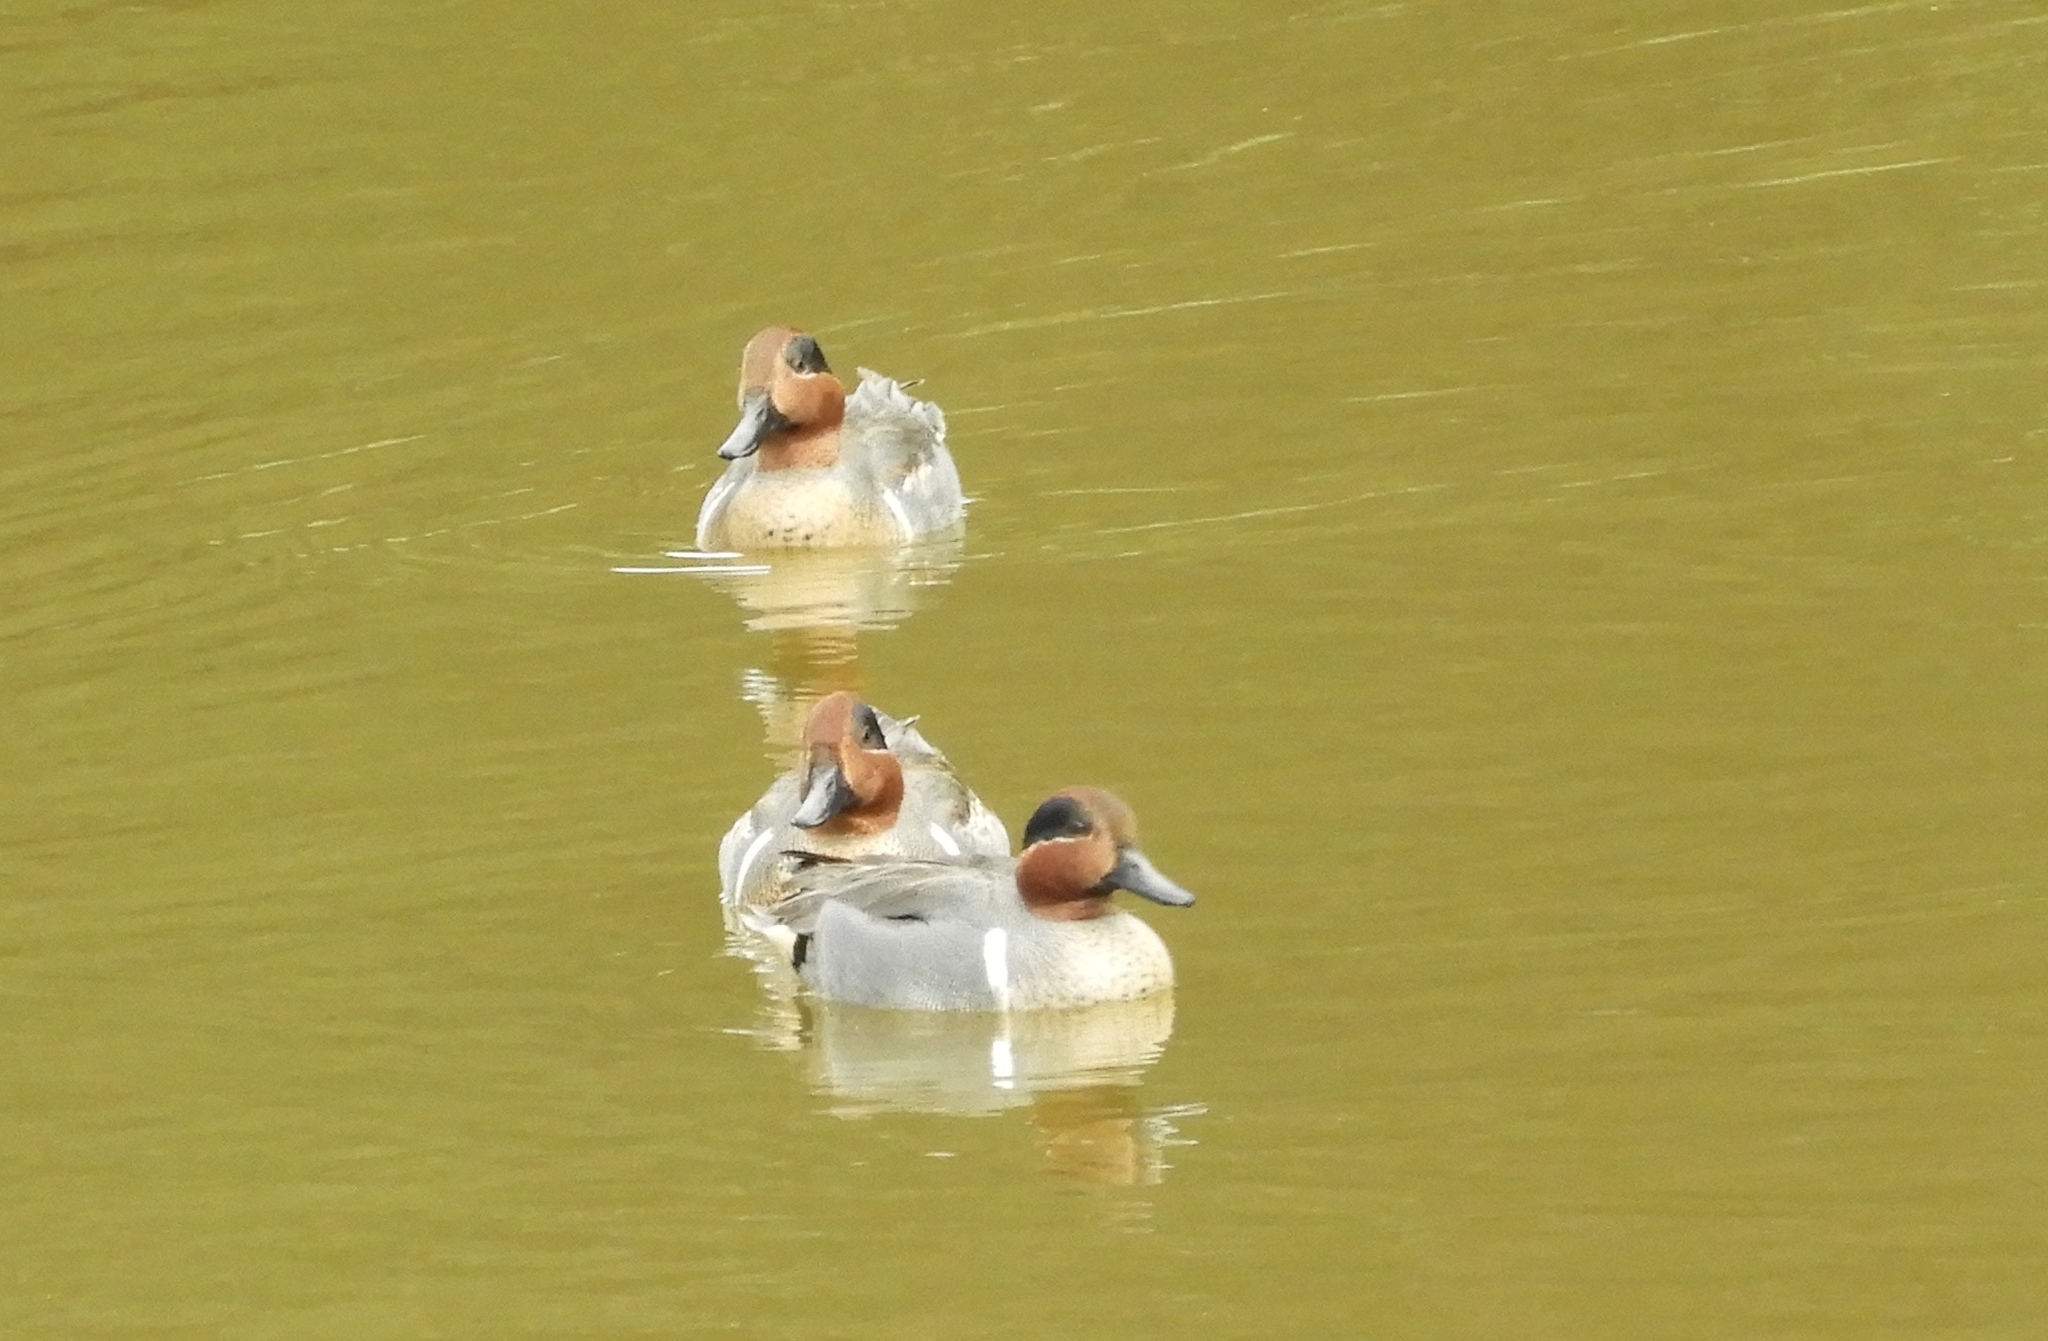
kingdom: Animalia
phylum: Chordata
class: Aves
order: Anseriformes
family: Anatidae
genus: Anas
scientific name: Anas crecca
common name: Eurasian teal
